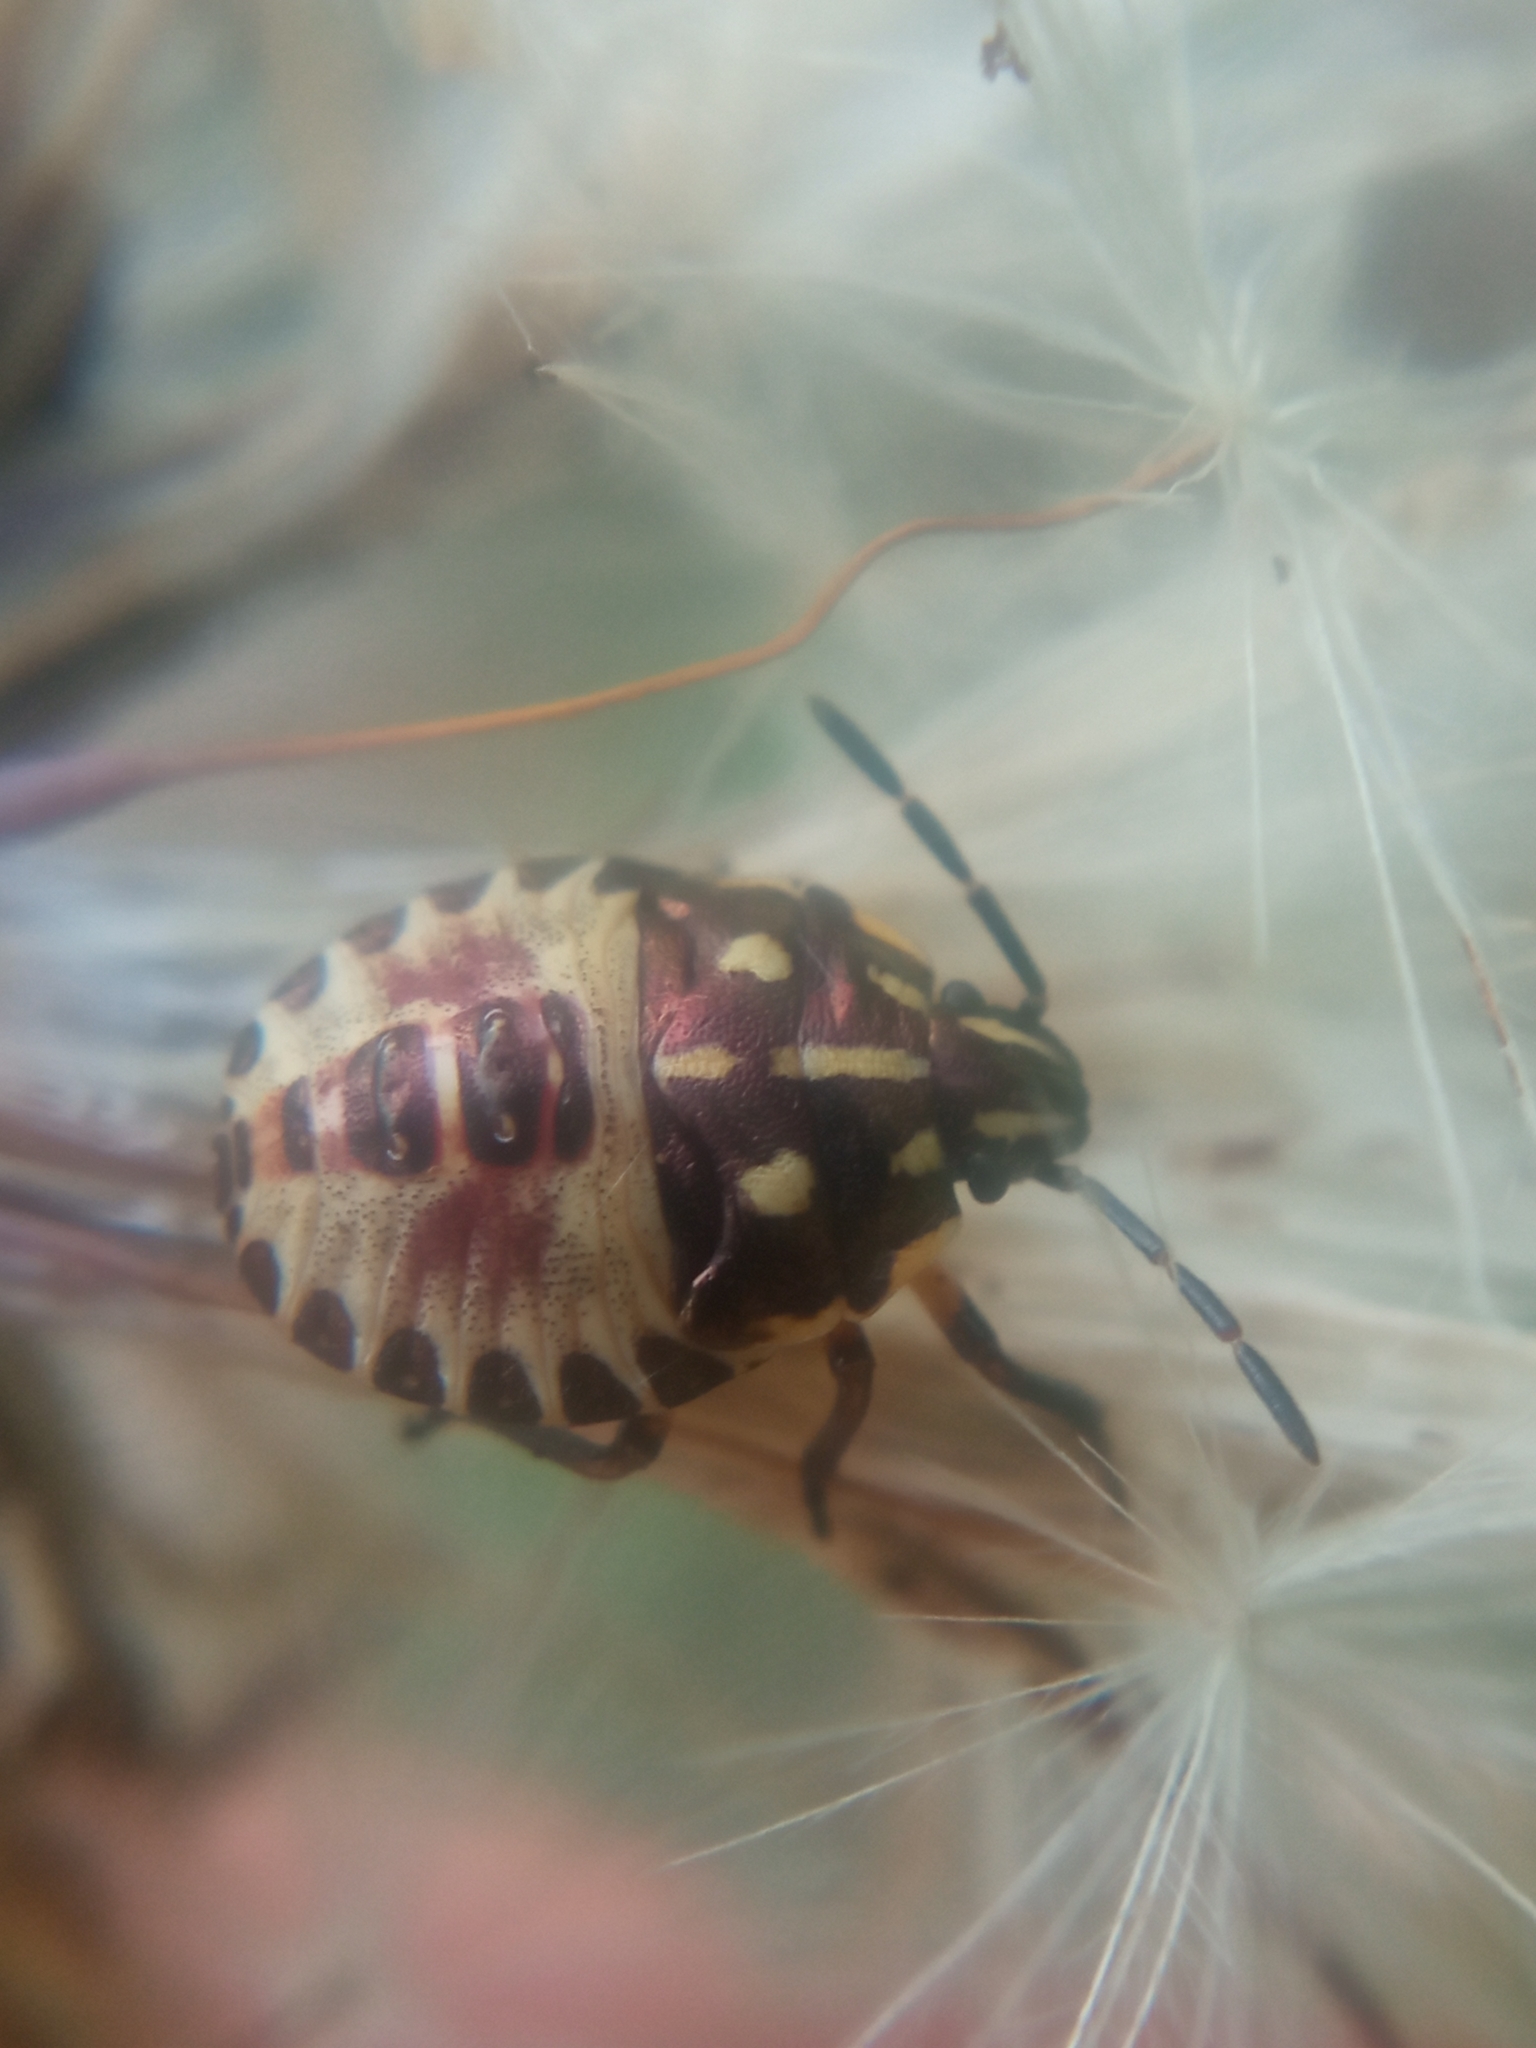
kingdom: Animalia
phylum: Arthropoda
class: Insecta
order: Hemiptera
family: Pentatomidae
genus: Carpocoris
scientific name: Carpocoris
